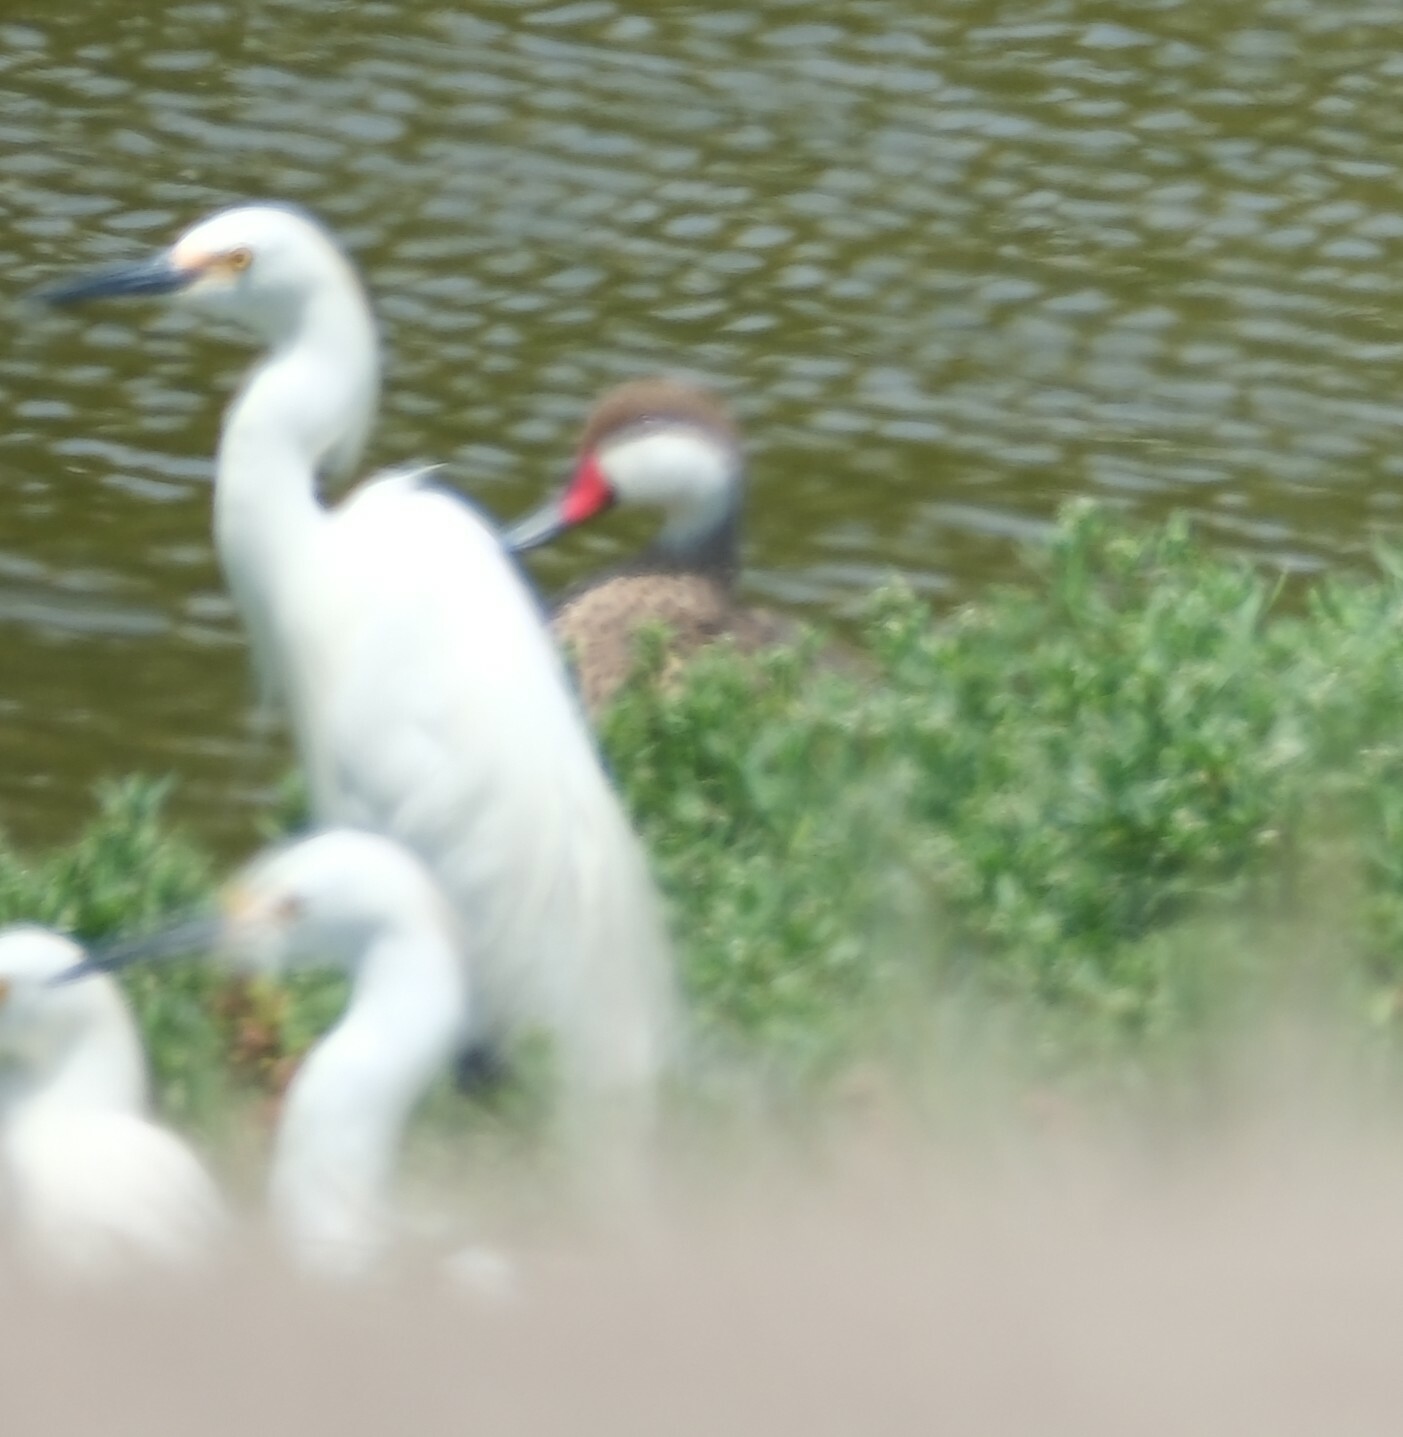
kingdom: Animalia
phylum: Chordata
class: Aves
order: Pelecaniformes
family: Ardeidae
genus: Egretta
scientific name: Egretta thula
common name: Snowy egret
